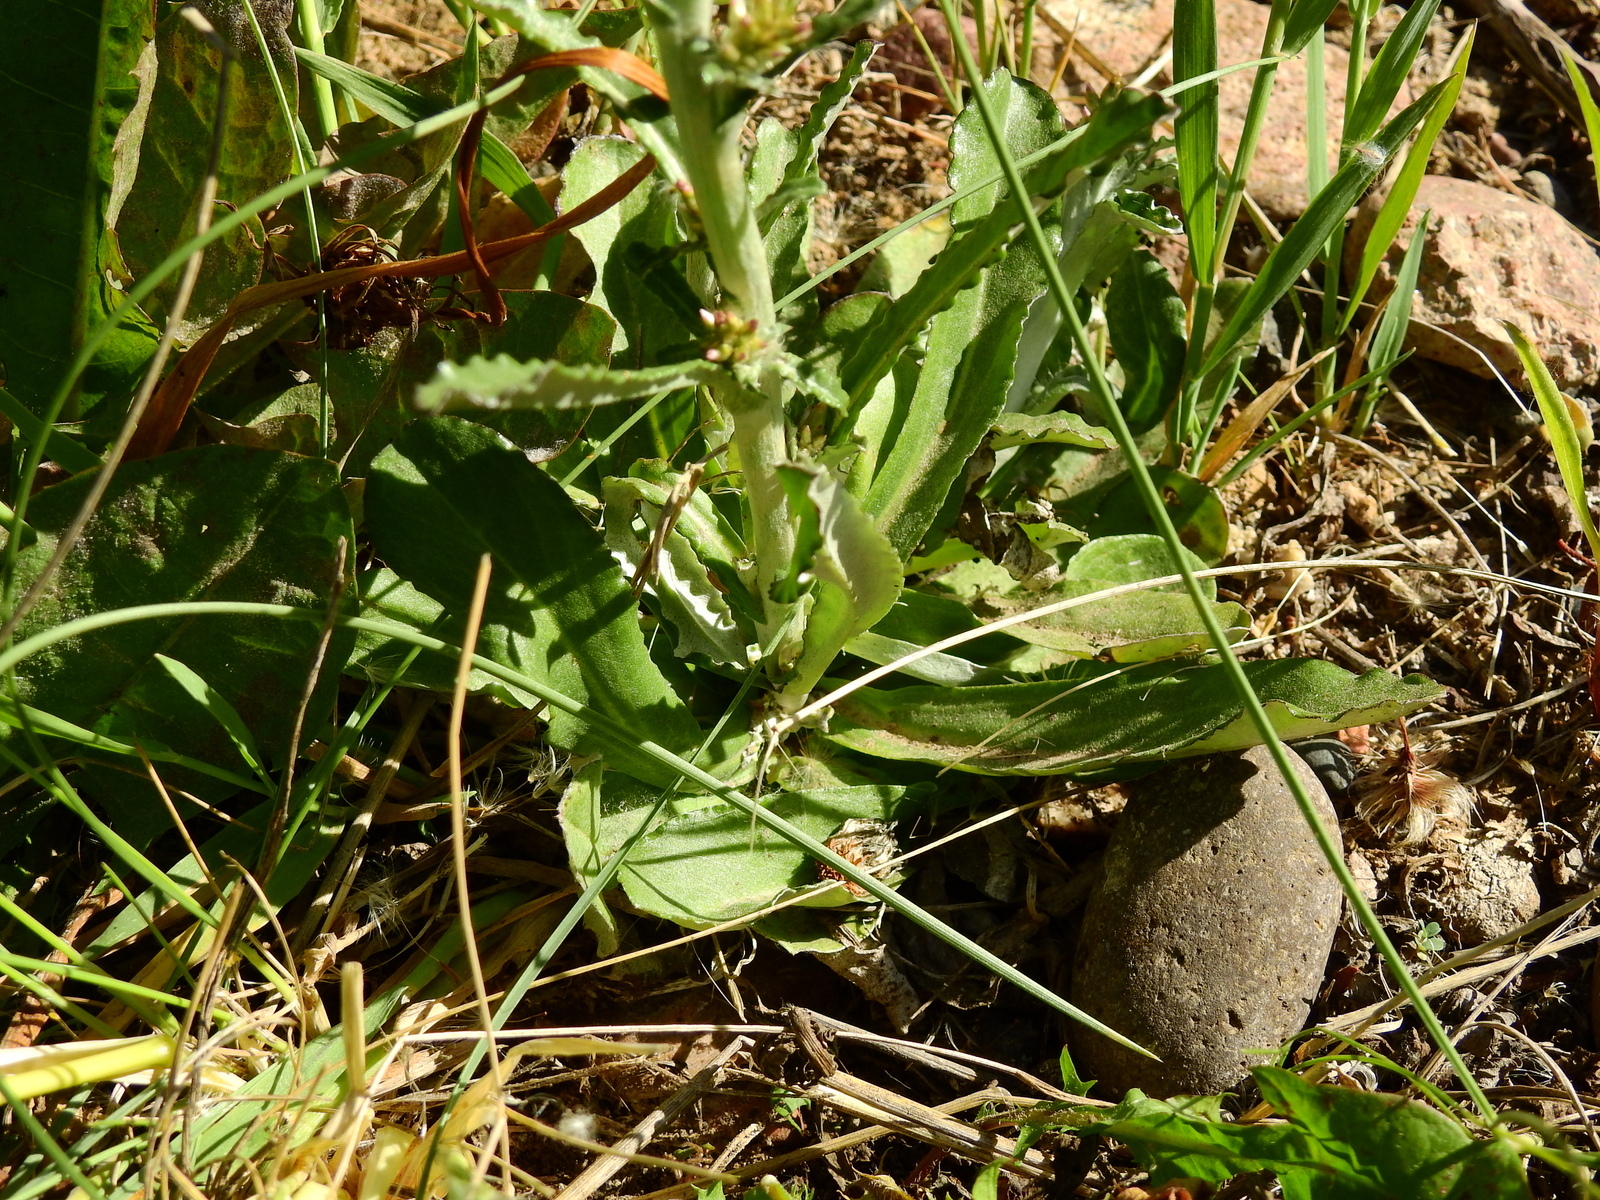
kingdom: Plantae
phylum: Tracheophyta
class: Magnoliopsida
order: Asterales
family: Asteraceae
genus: Gamochaeta
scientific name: Gamochaeta americana
